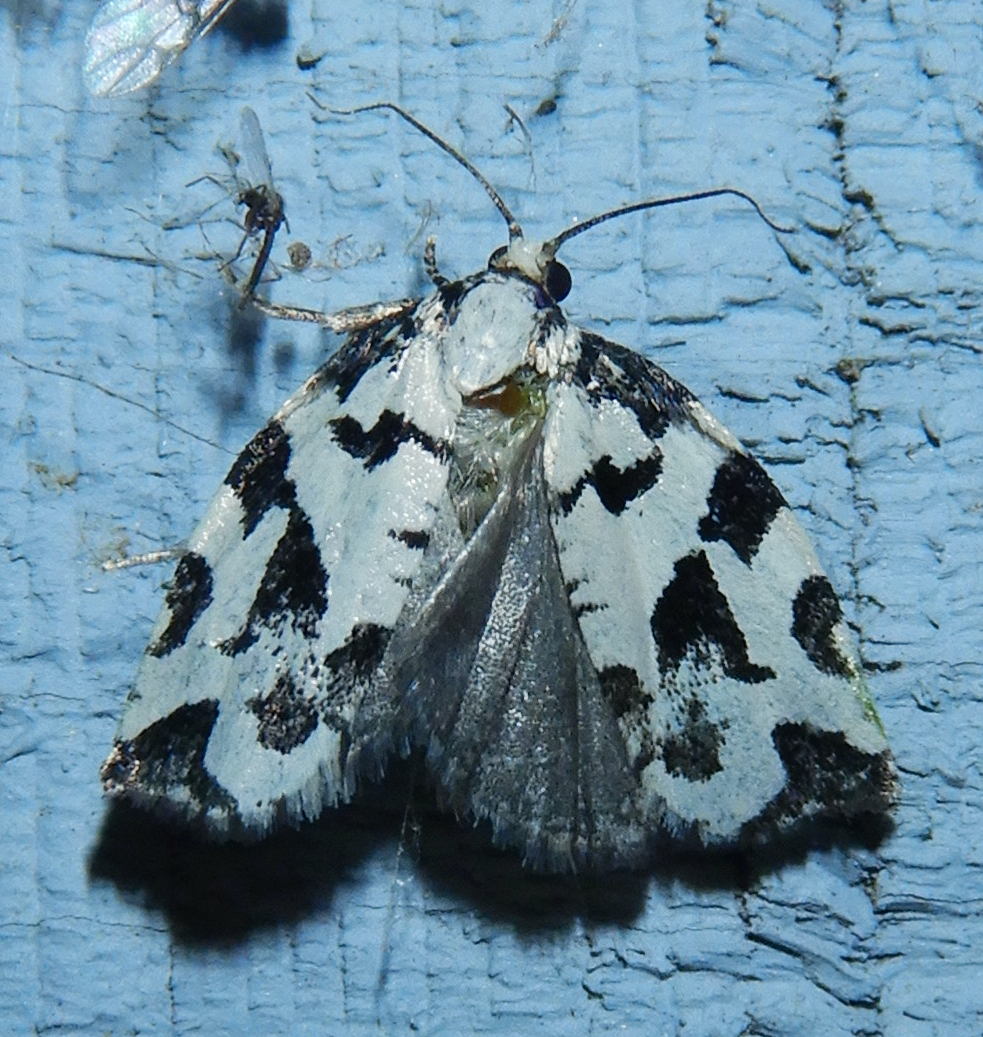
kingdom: Animalia
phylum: Arthropoda
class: Insecta
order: Lepidoptera
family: Tortricidae
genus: Archips
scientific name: Archips dissitana
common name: Boldly-marked archips moth
